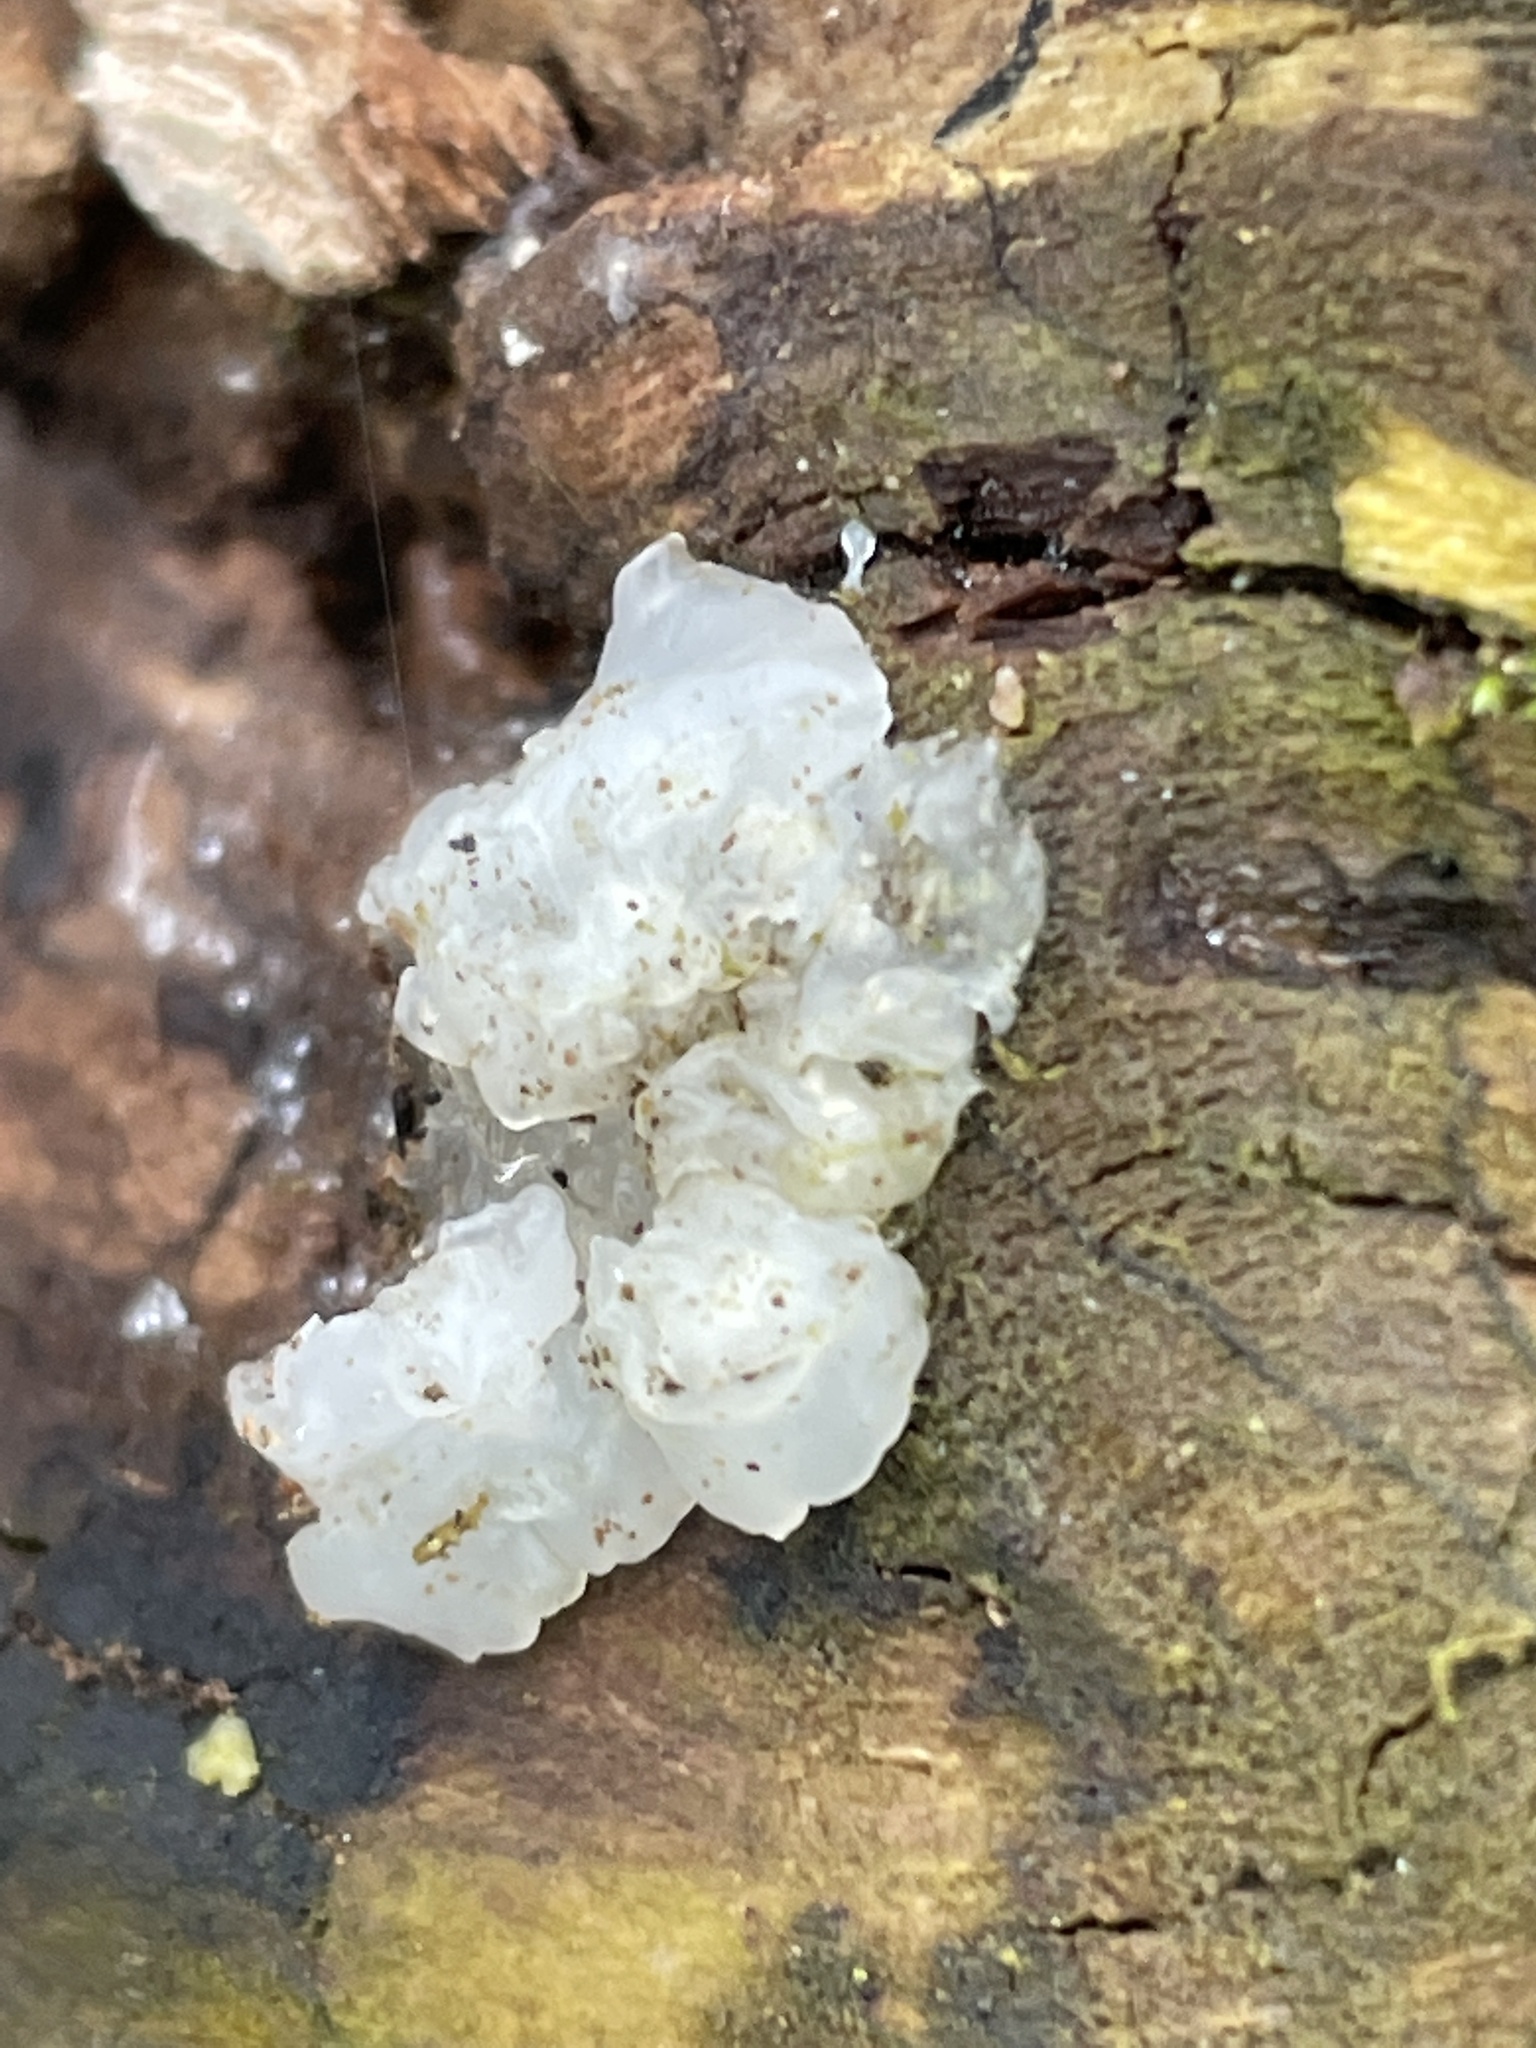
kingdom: Fungi
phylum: Basidiomycota
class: Agaricomycetes
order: Auriculariales
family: Hyaloriaceae
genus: Myxarium
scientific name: Myxarium nucleatum
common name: Crystal brain fungus
